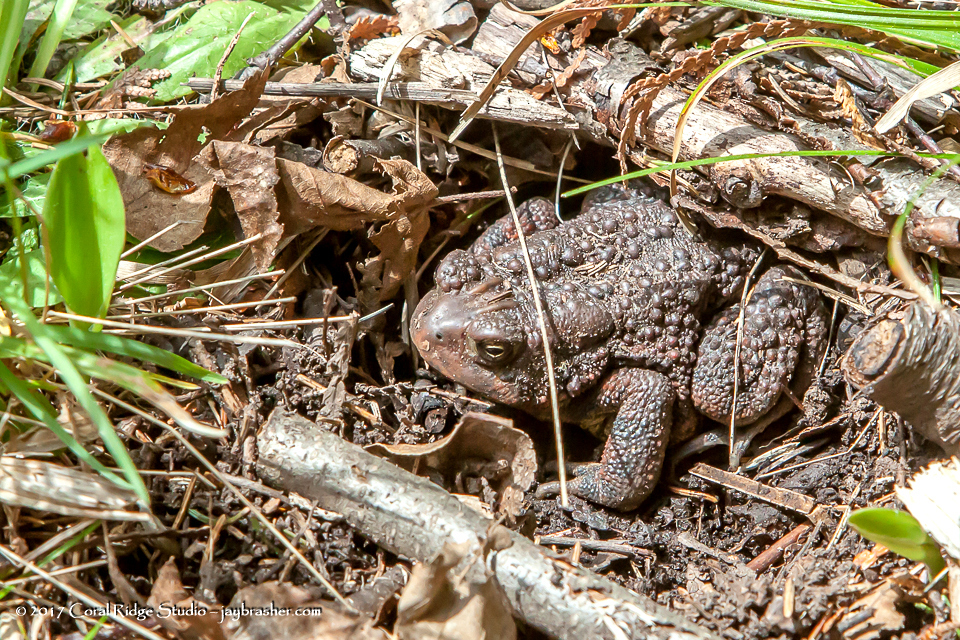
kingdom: Animalia
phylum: Chordata
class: Amphibia
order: Anura
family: Bufonidae
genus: Anaxyrus
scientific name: Anaxyrus americanus
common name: American toad
